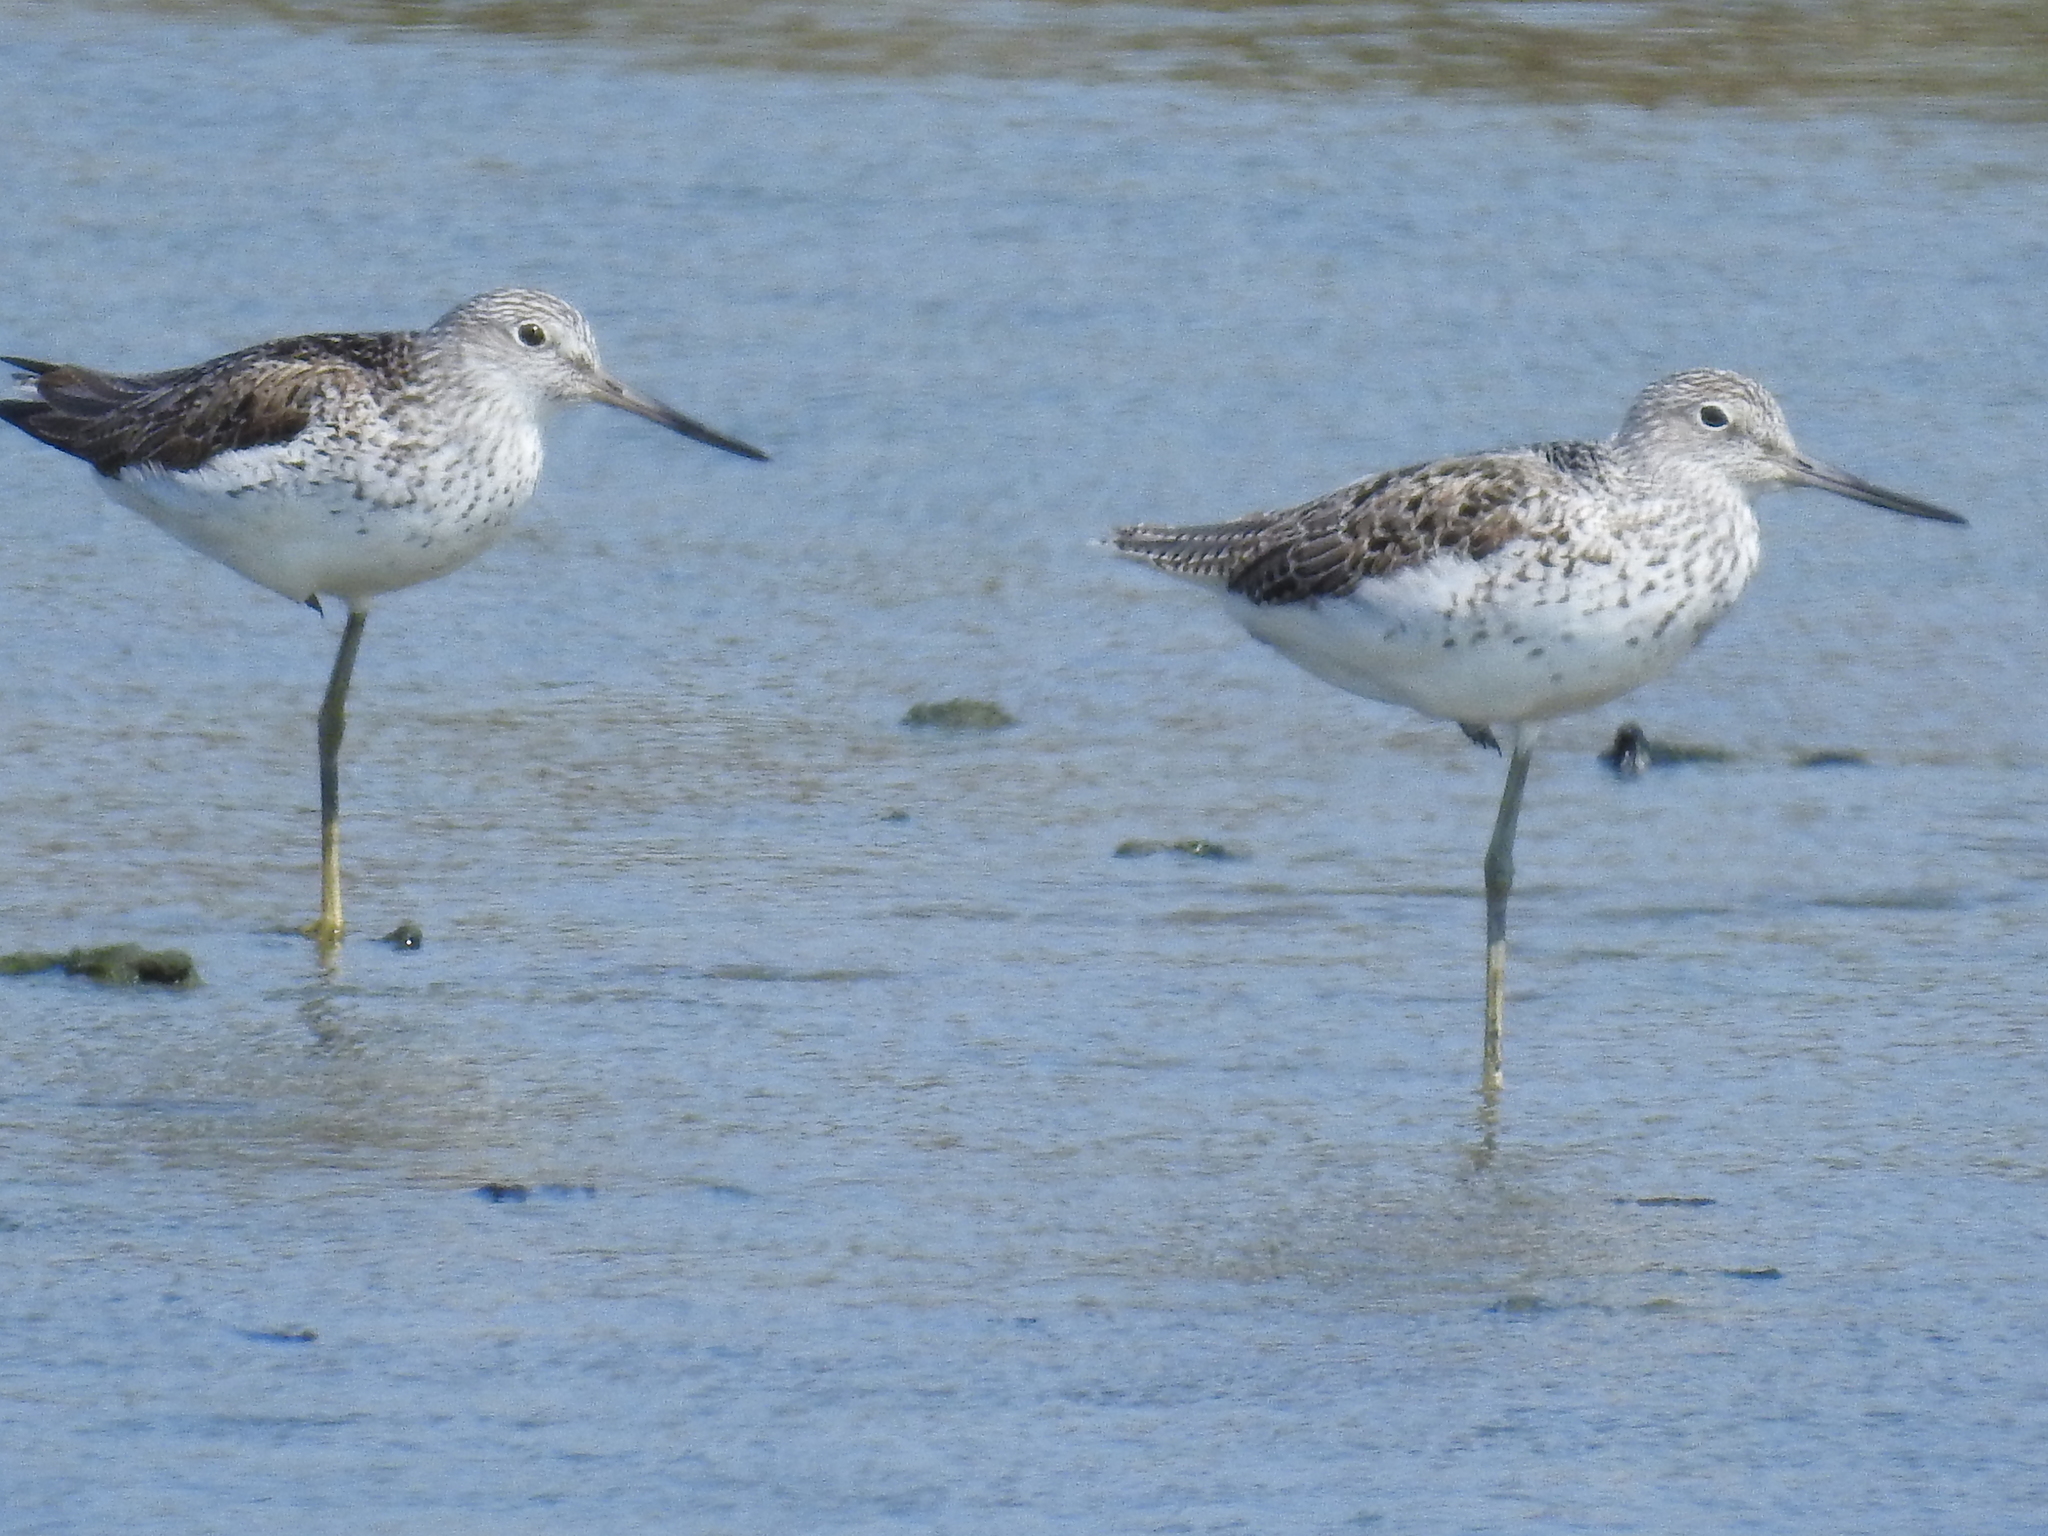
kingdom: Animalia
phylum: Chordata
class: Aves
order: Charadriiformes
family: Scolopacidae
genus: Tringa
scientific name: Tringa nebularia
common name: Common greenshank
